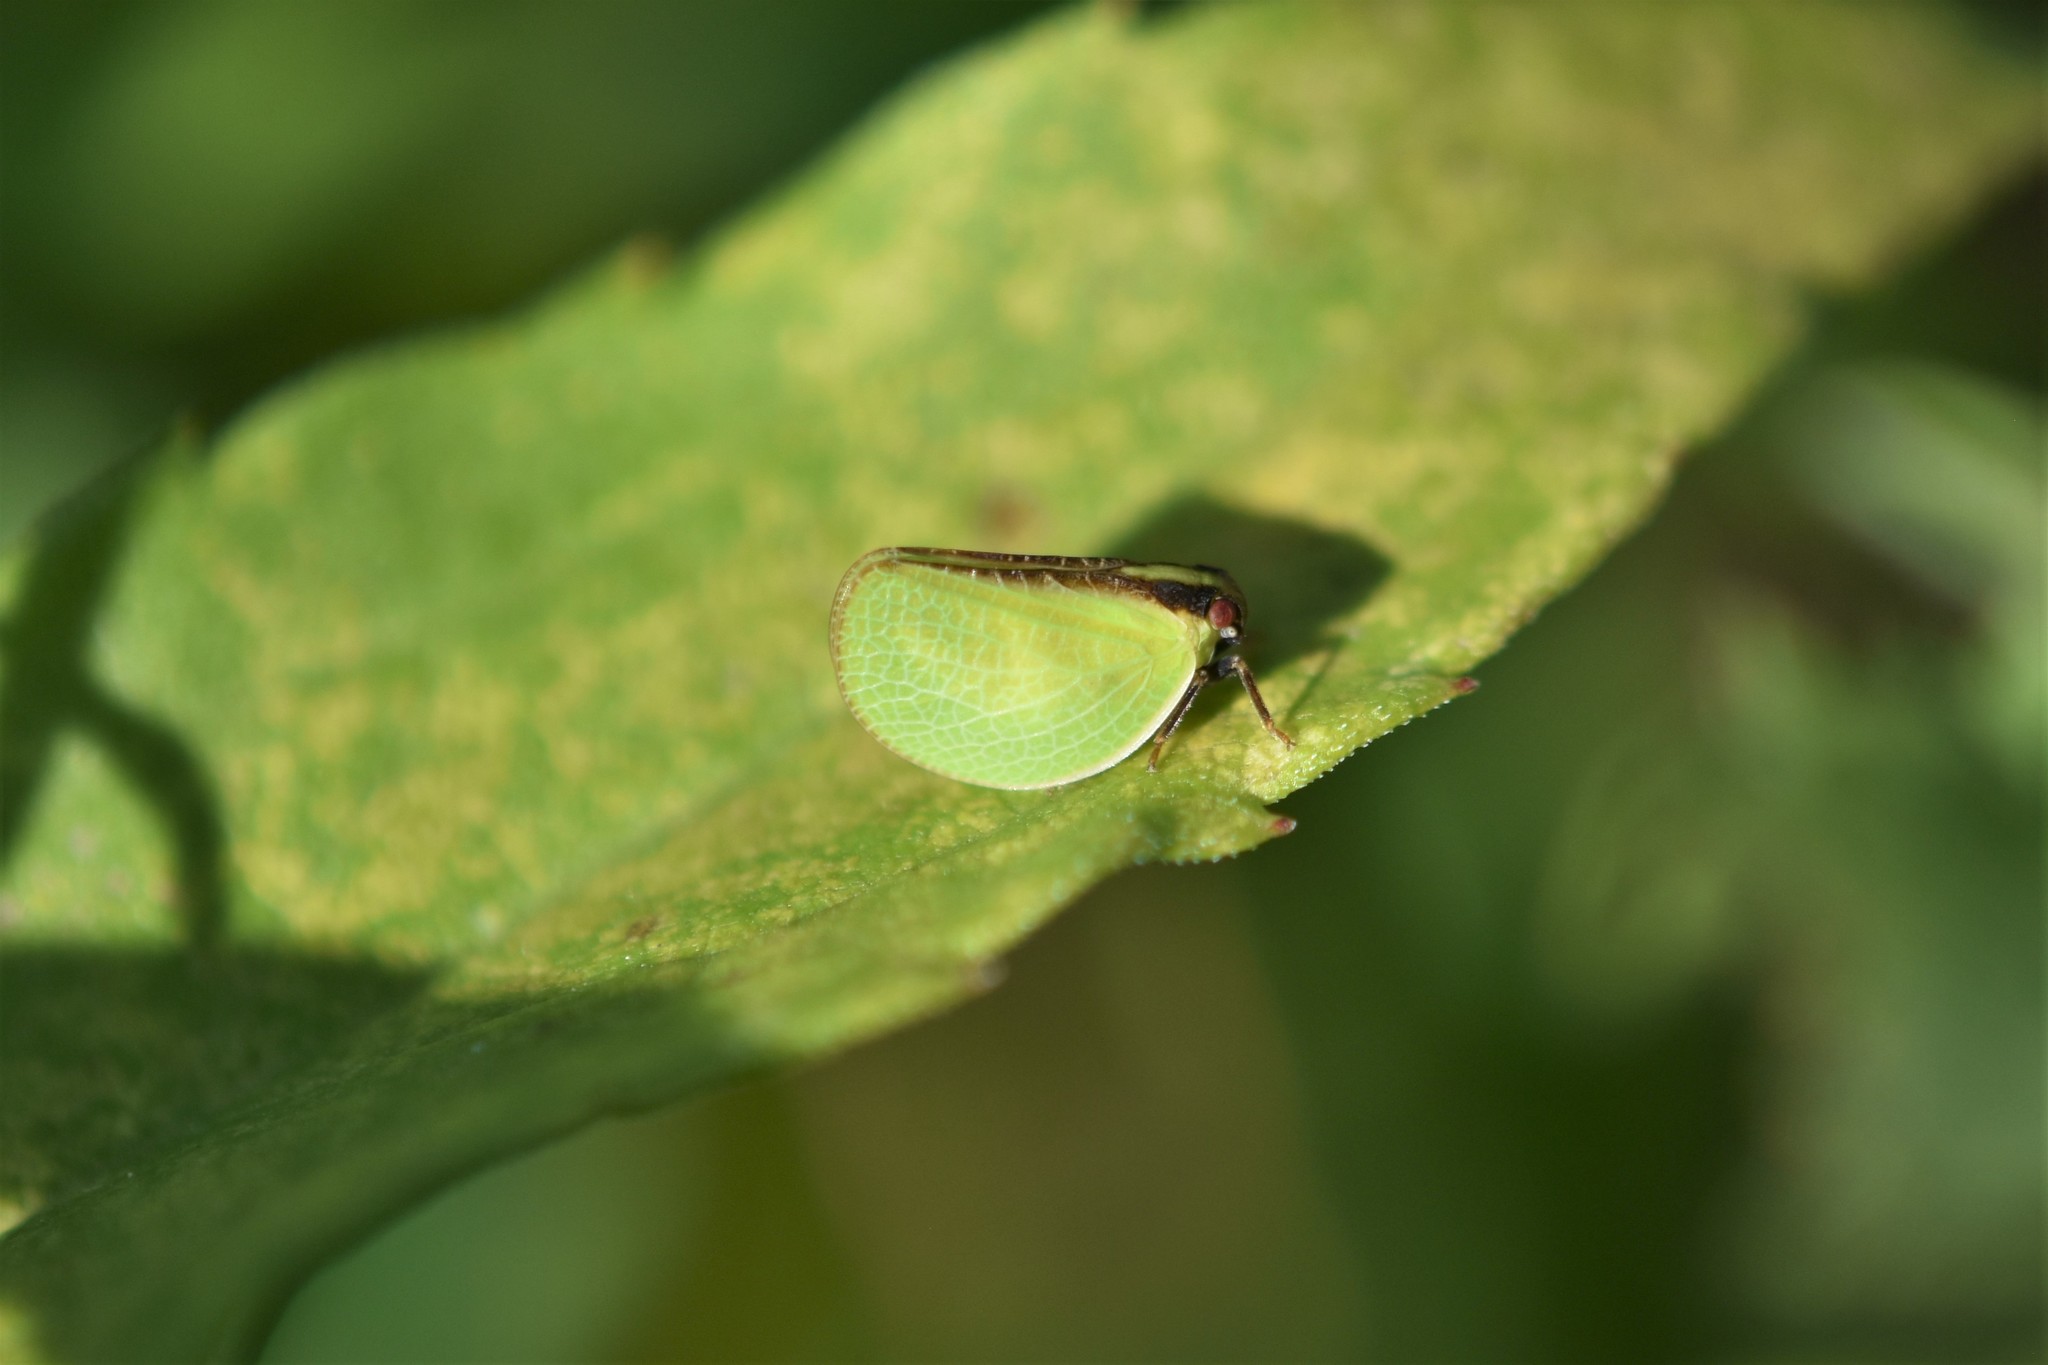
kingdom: Animalia
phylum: Arthropoda
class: Insecta
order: Hemiptera
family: Acanaloniidae
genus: Acanalonia
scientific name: Acanalonia bivittata
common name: Two-striped planthopper
